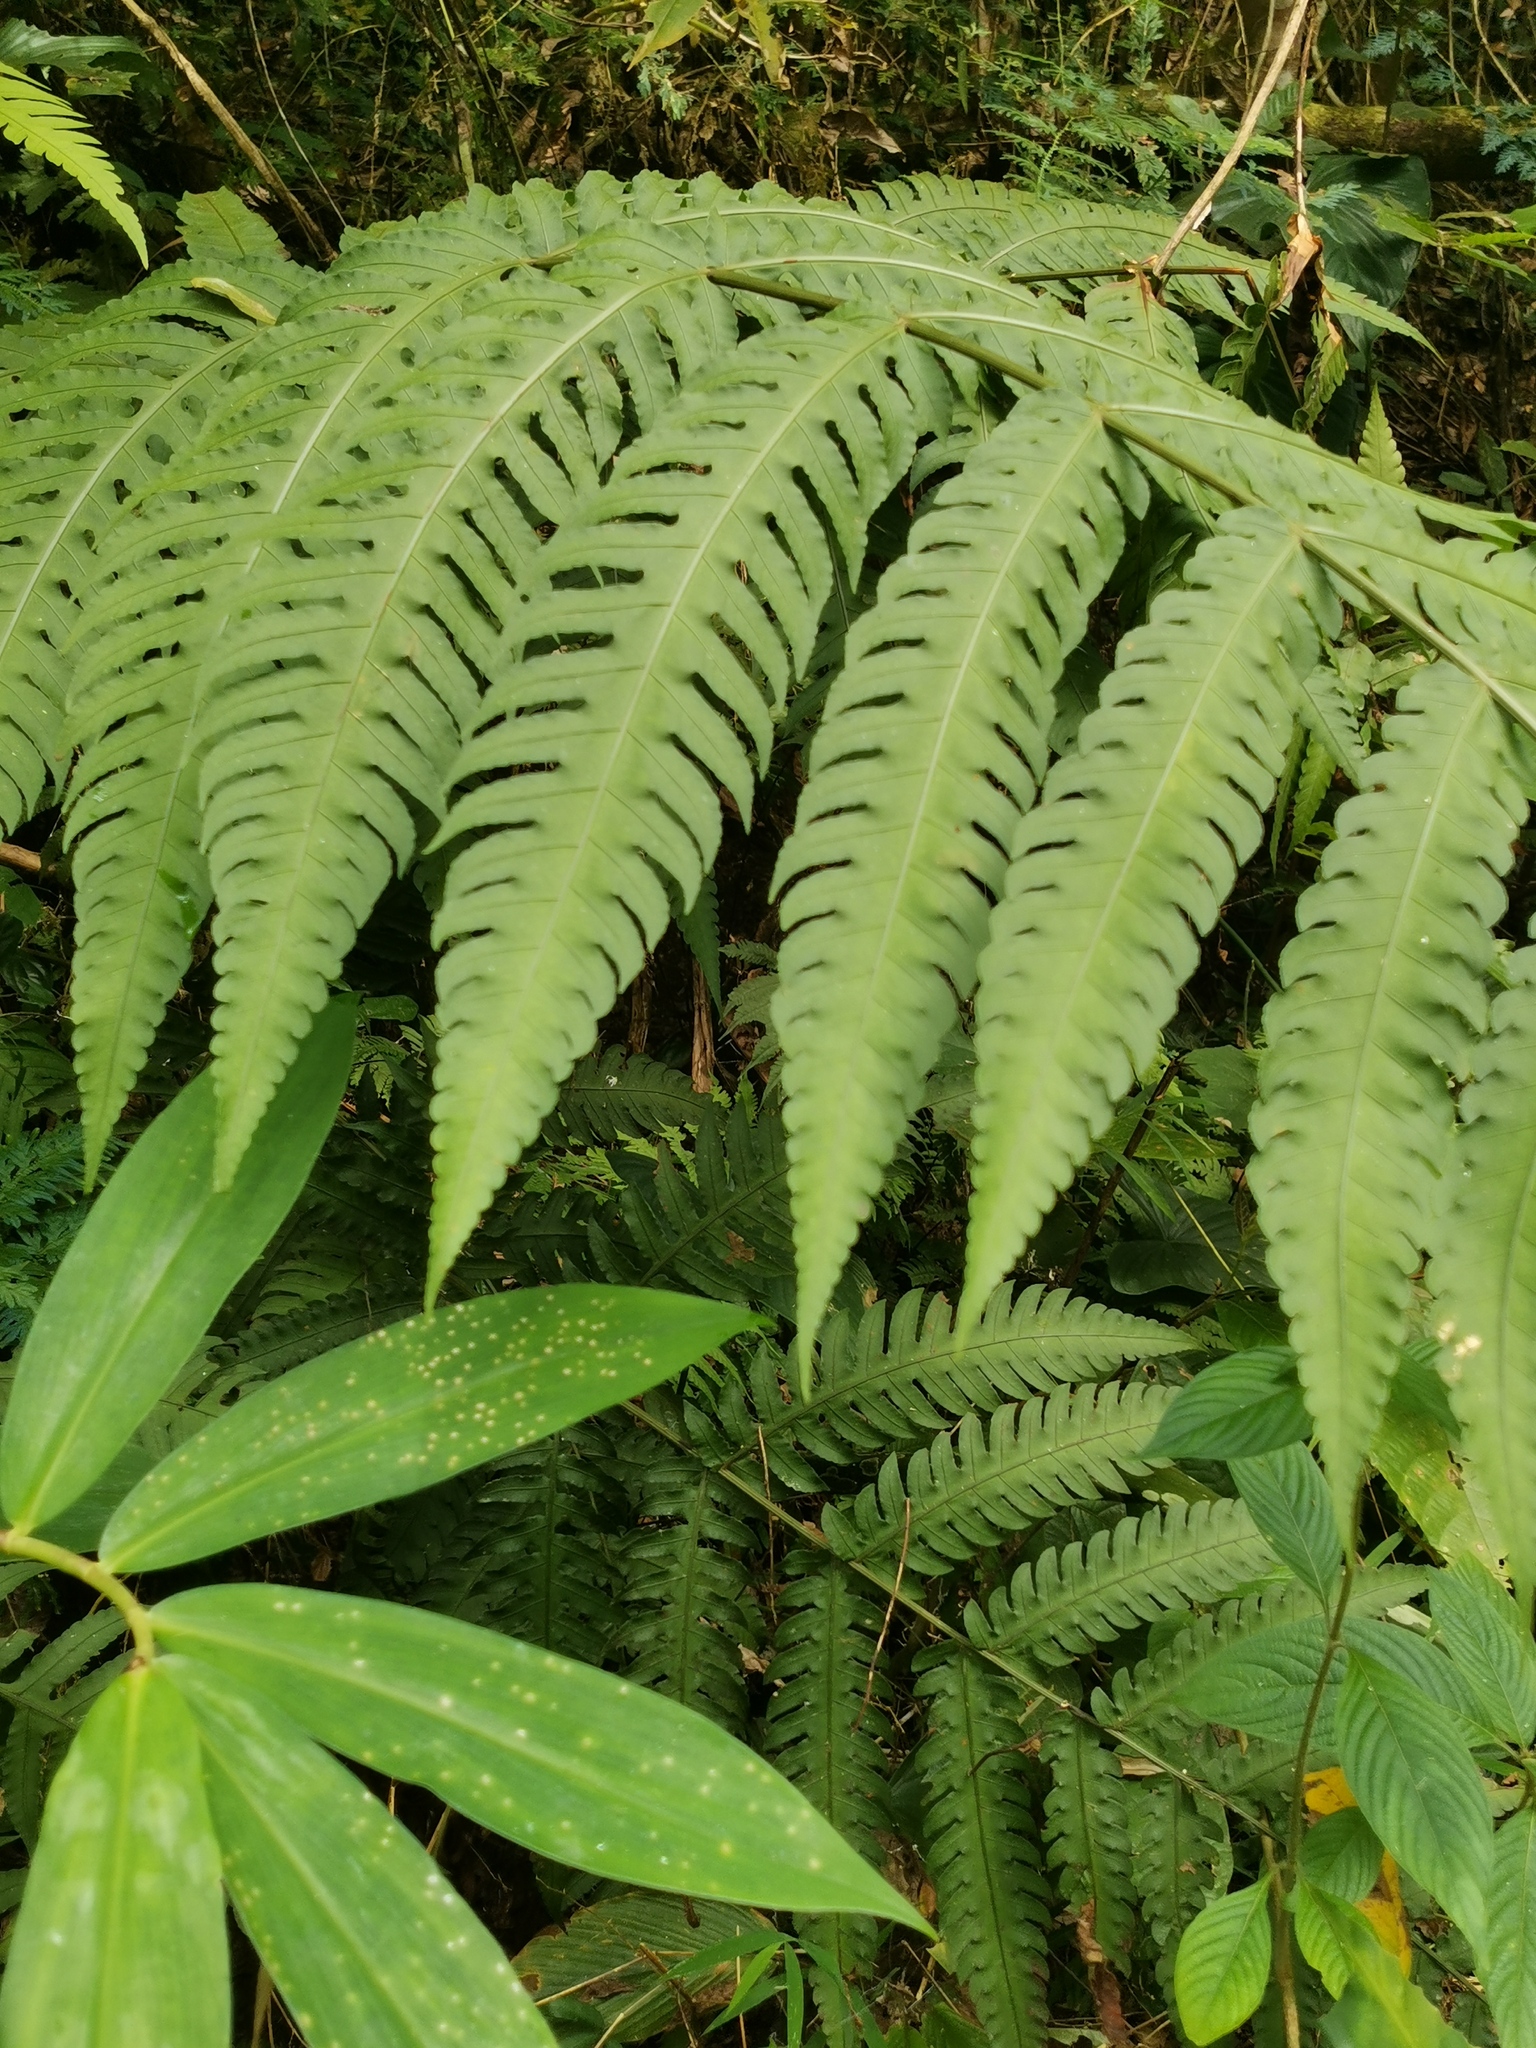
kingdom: Plantae
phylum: Tracheophyta
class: Polypodiopsida
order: Polypodiales
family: Dryopteridaceae
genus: Pleocnemia
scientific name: Pleocnemia irregularis
